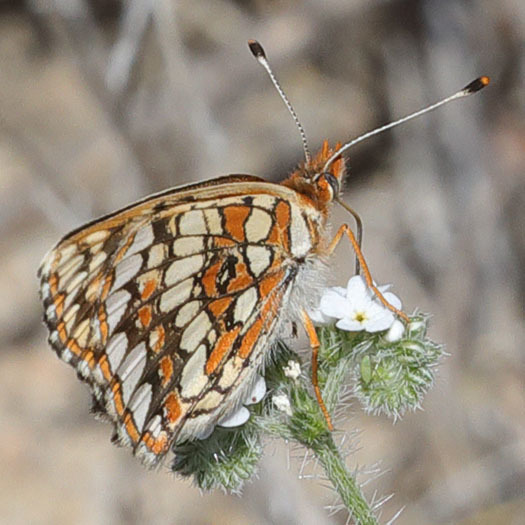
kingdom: Animalia
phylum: Arthropoda
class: Insecta
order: Lepidoptera
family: Nymphalidae
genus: Chlosyne
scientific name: Chlosyne gabbii
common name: Gabb's checkerspot
